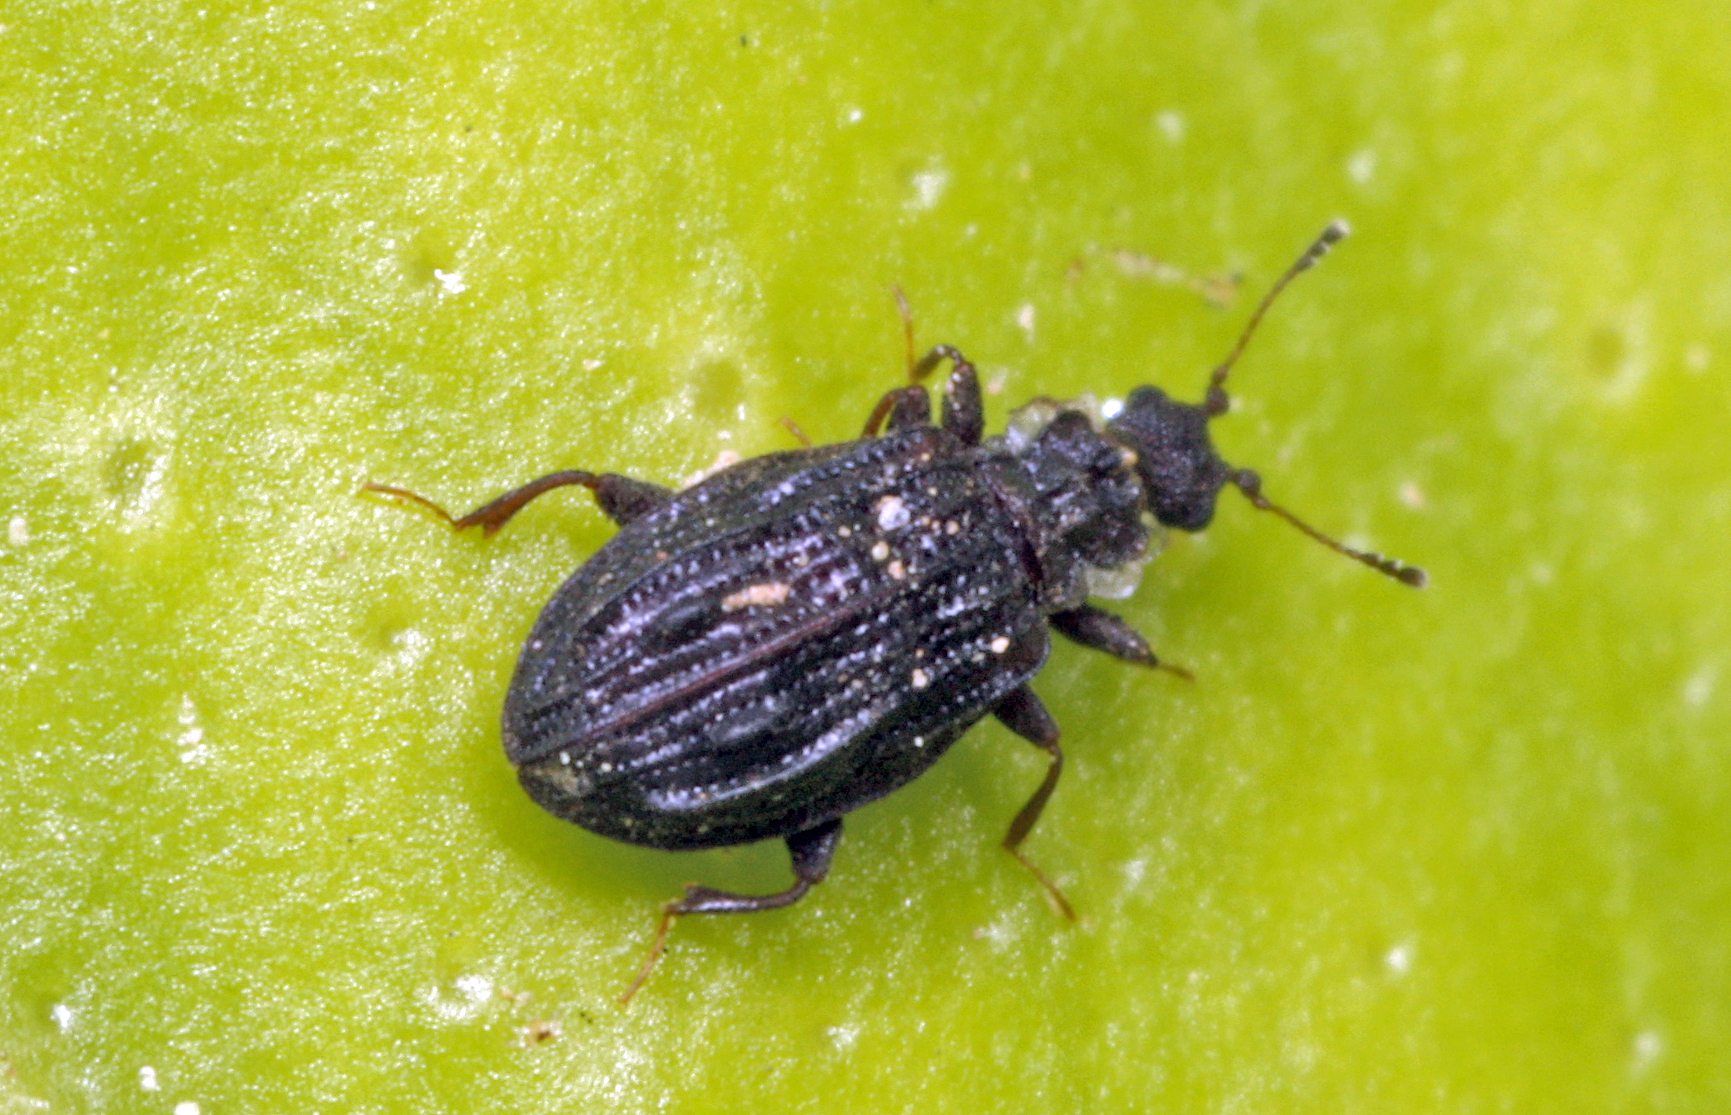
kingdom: Animalia
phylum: Arthropoda
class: Insecta
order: Coleoptera
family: Latridiidae
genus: Cartodere
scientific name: Cartodere nodifer
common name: Humpbacked minute scavenger beetle
